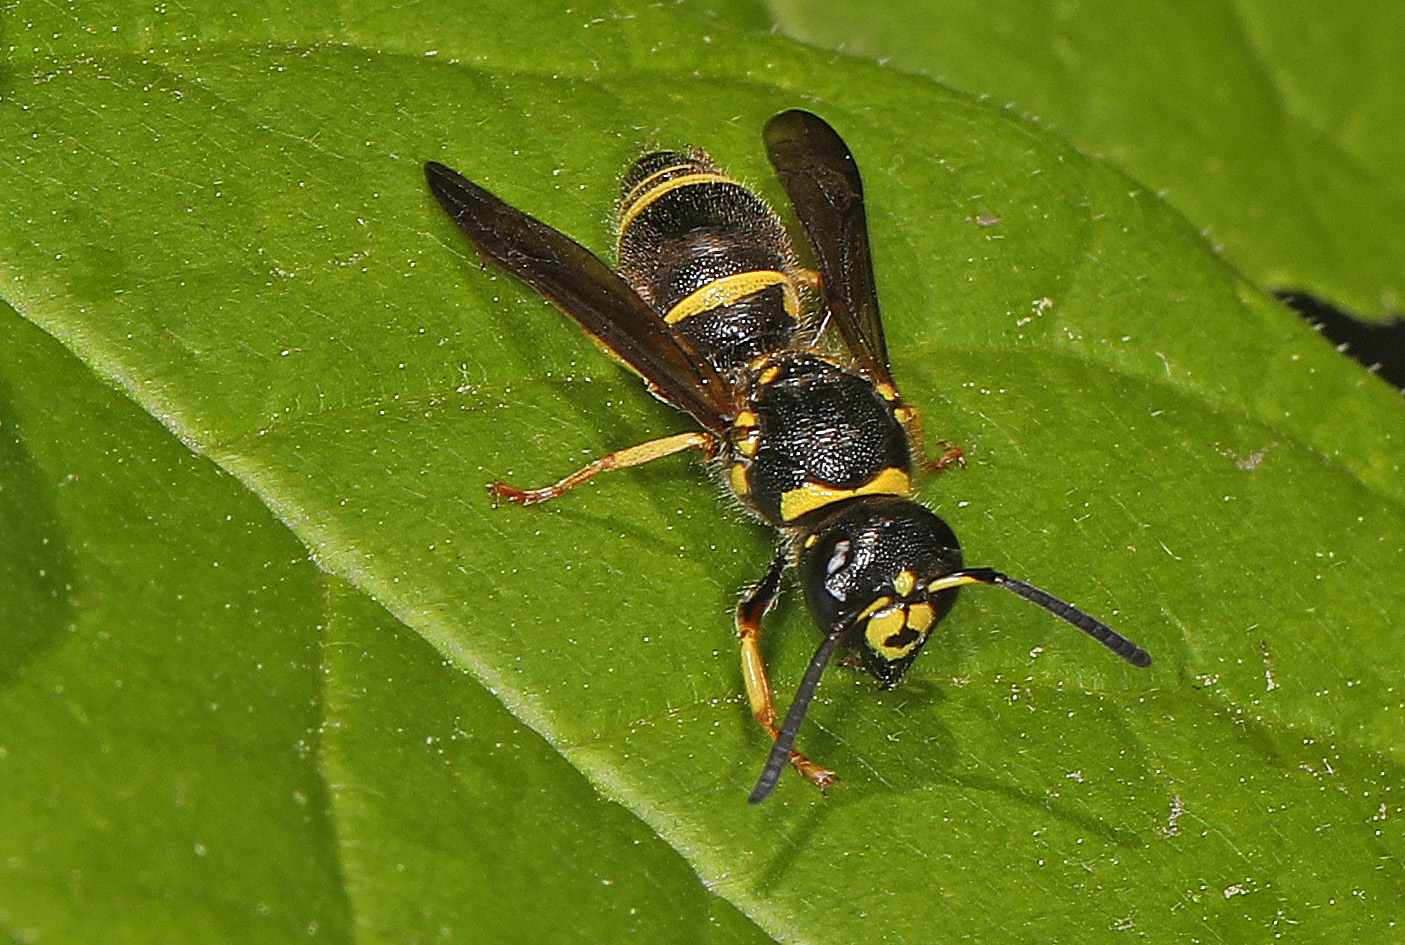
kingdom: Animalia
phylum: Arthropoda
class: Insecta
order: Hymenoptera
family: Vespidae
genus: Ancistrocerus
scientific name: Ancistrocerus campestris
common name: Smiling mason wasp
